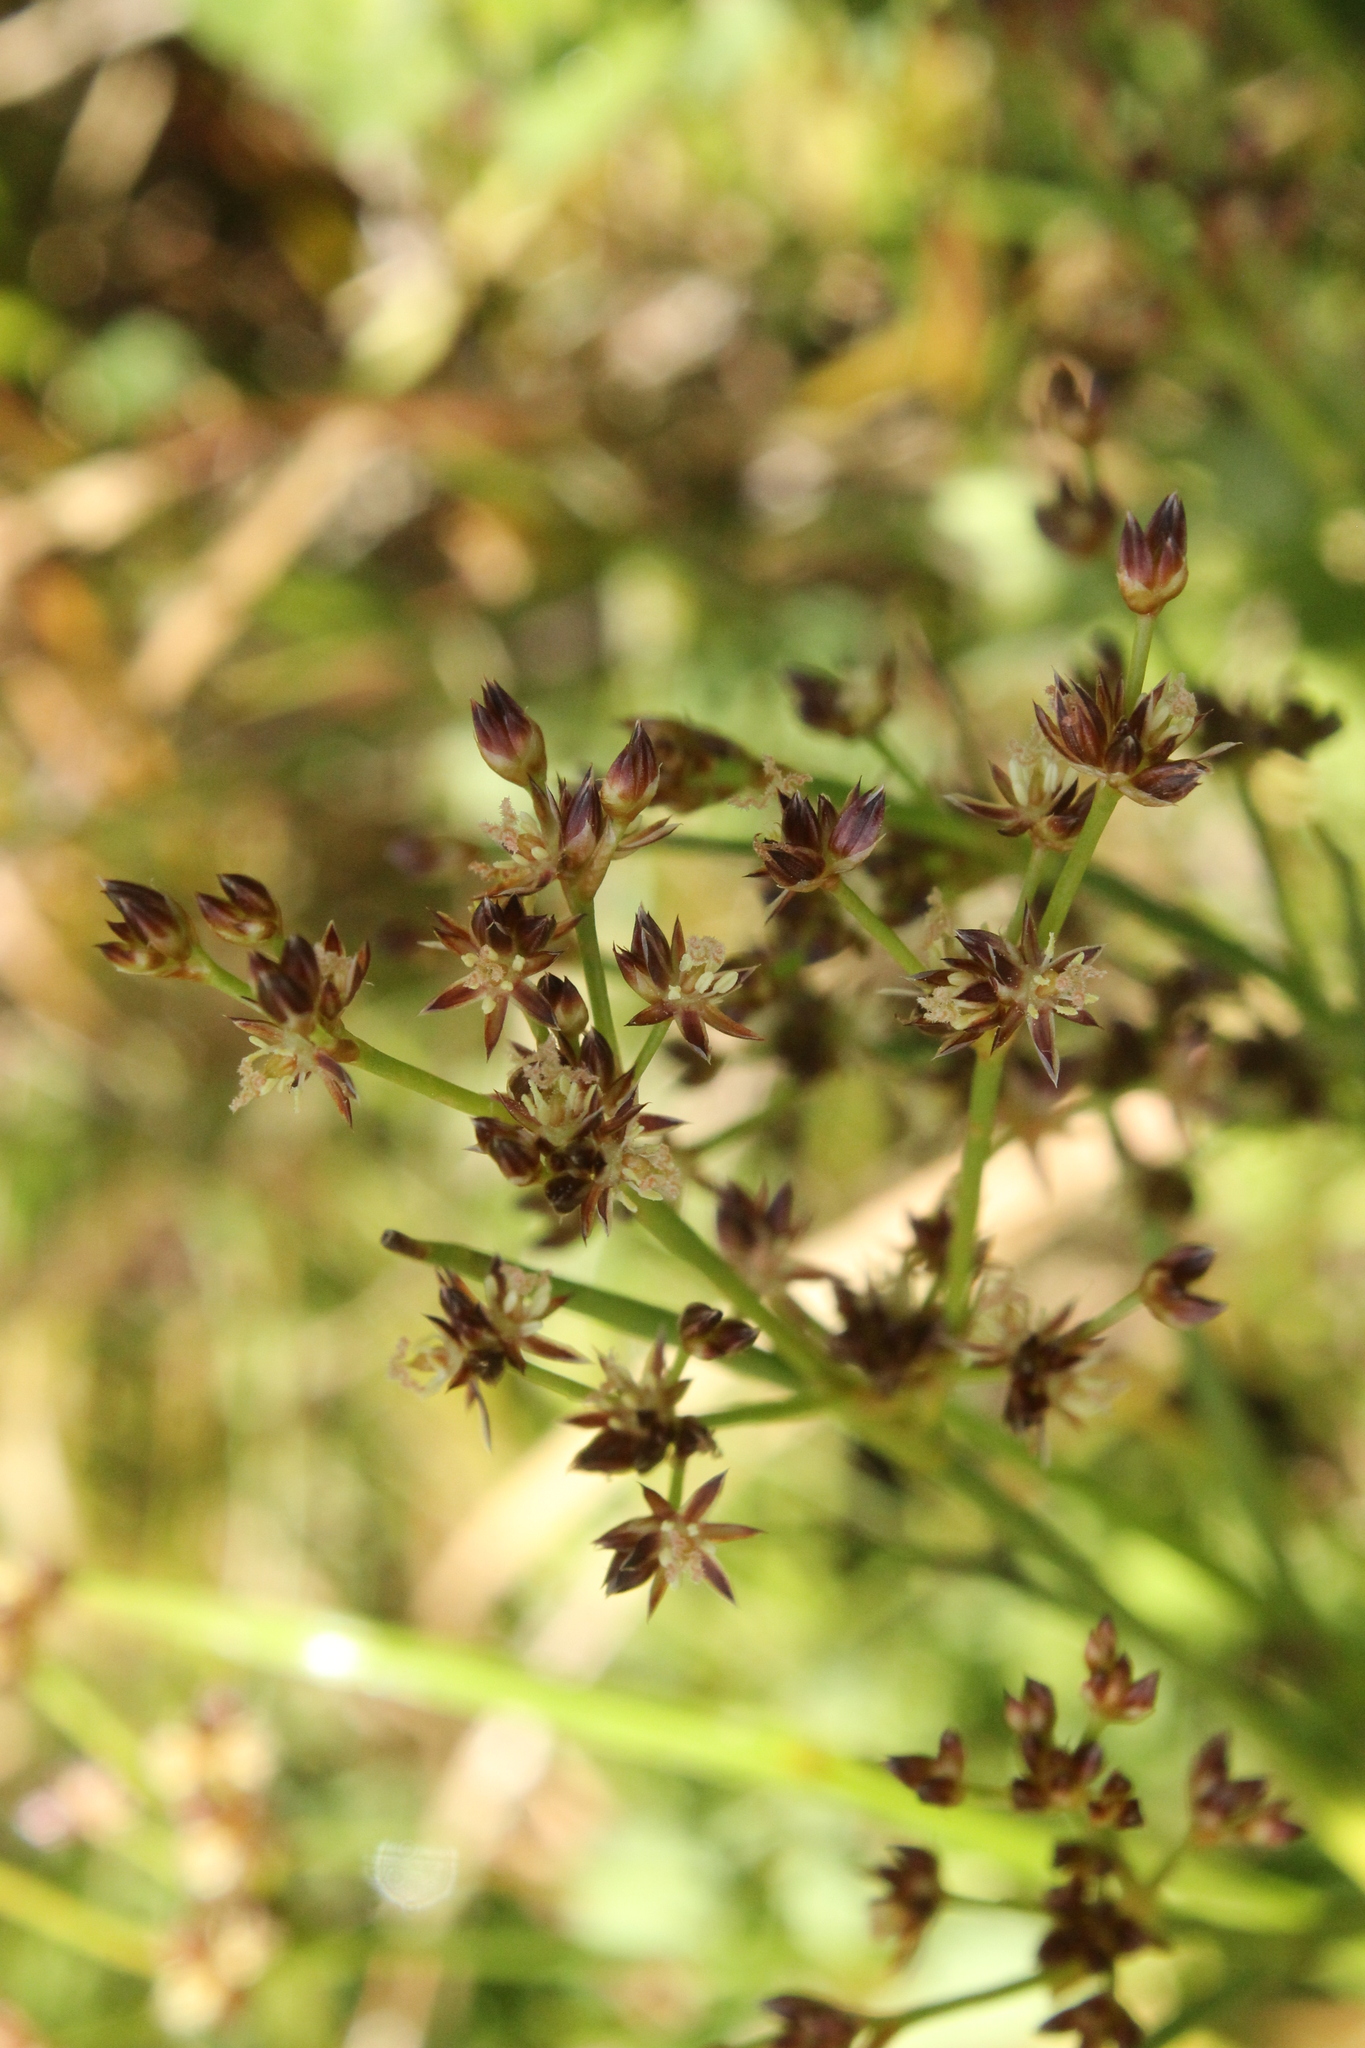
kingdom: Plantae
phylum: Tracheophyta
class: Liliopsida
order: Poales
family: Juncaceae
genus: Juncus
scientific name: Juncus articulatus
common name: Jointed rush
